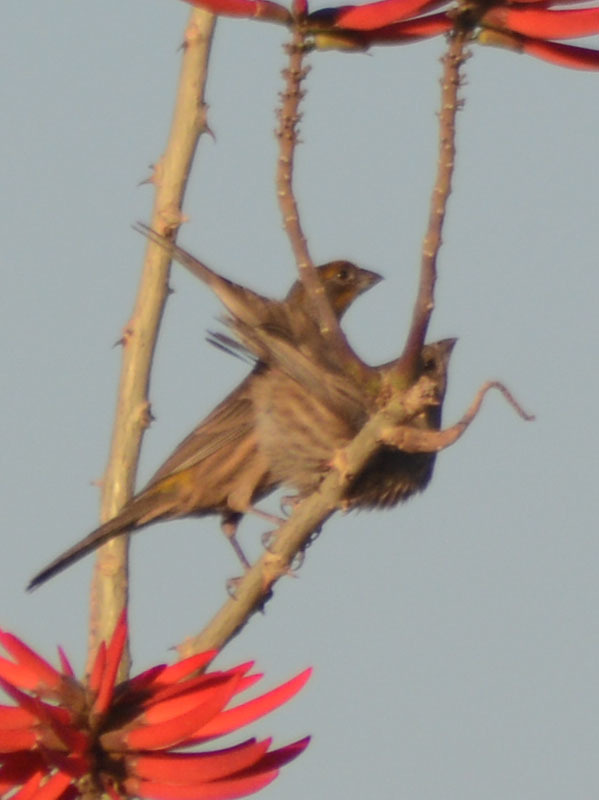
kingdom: Animalia
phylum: Chordata
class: Aves
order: Passeriformes
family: Fringillidae
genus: Haemorhous
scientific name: Haemorhous mexicanus
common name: House finch
